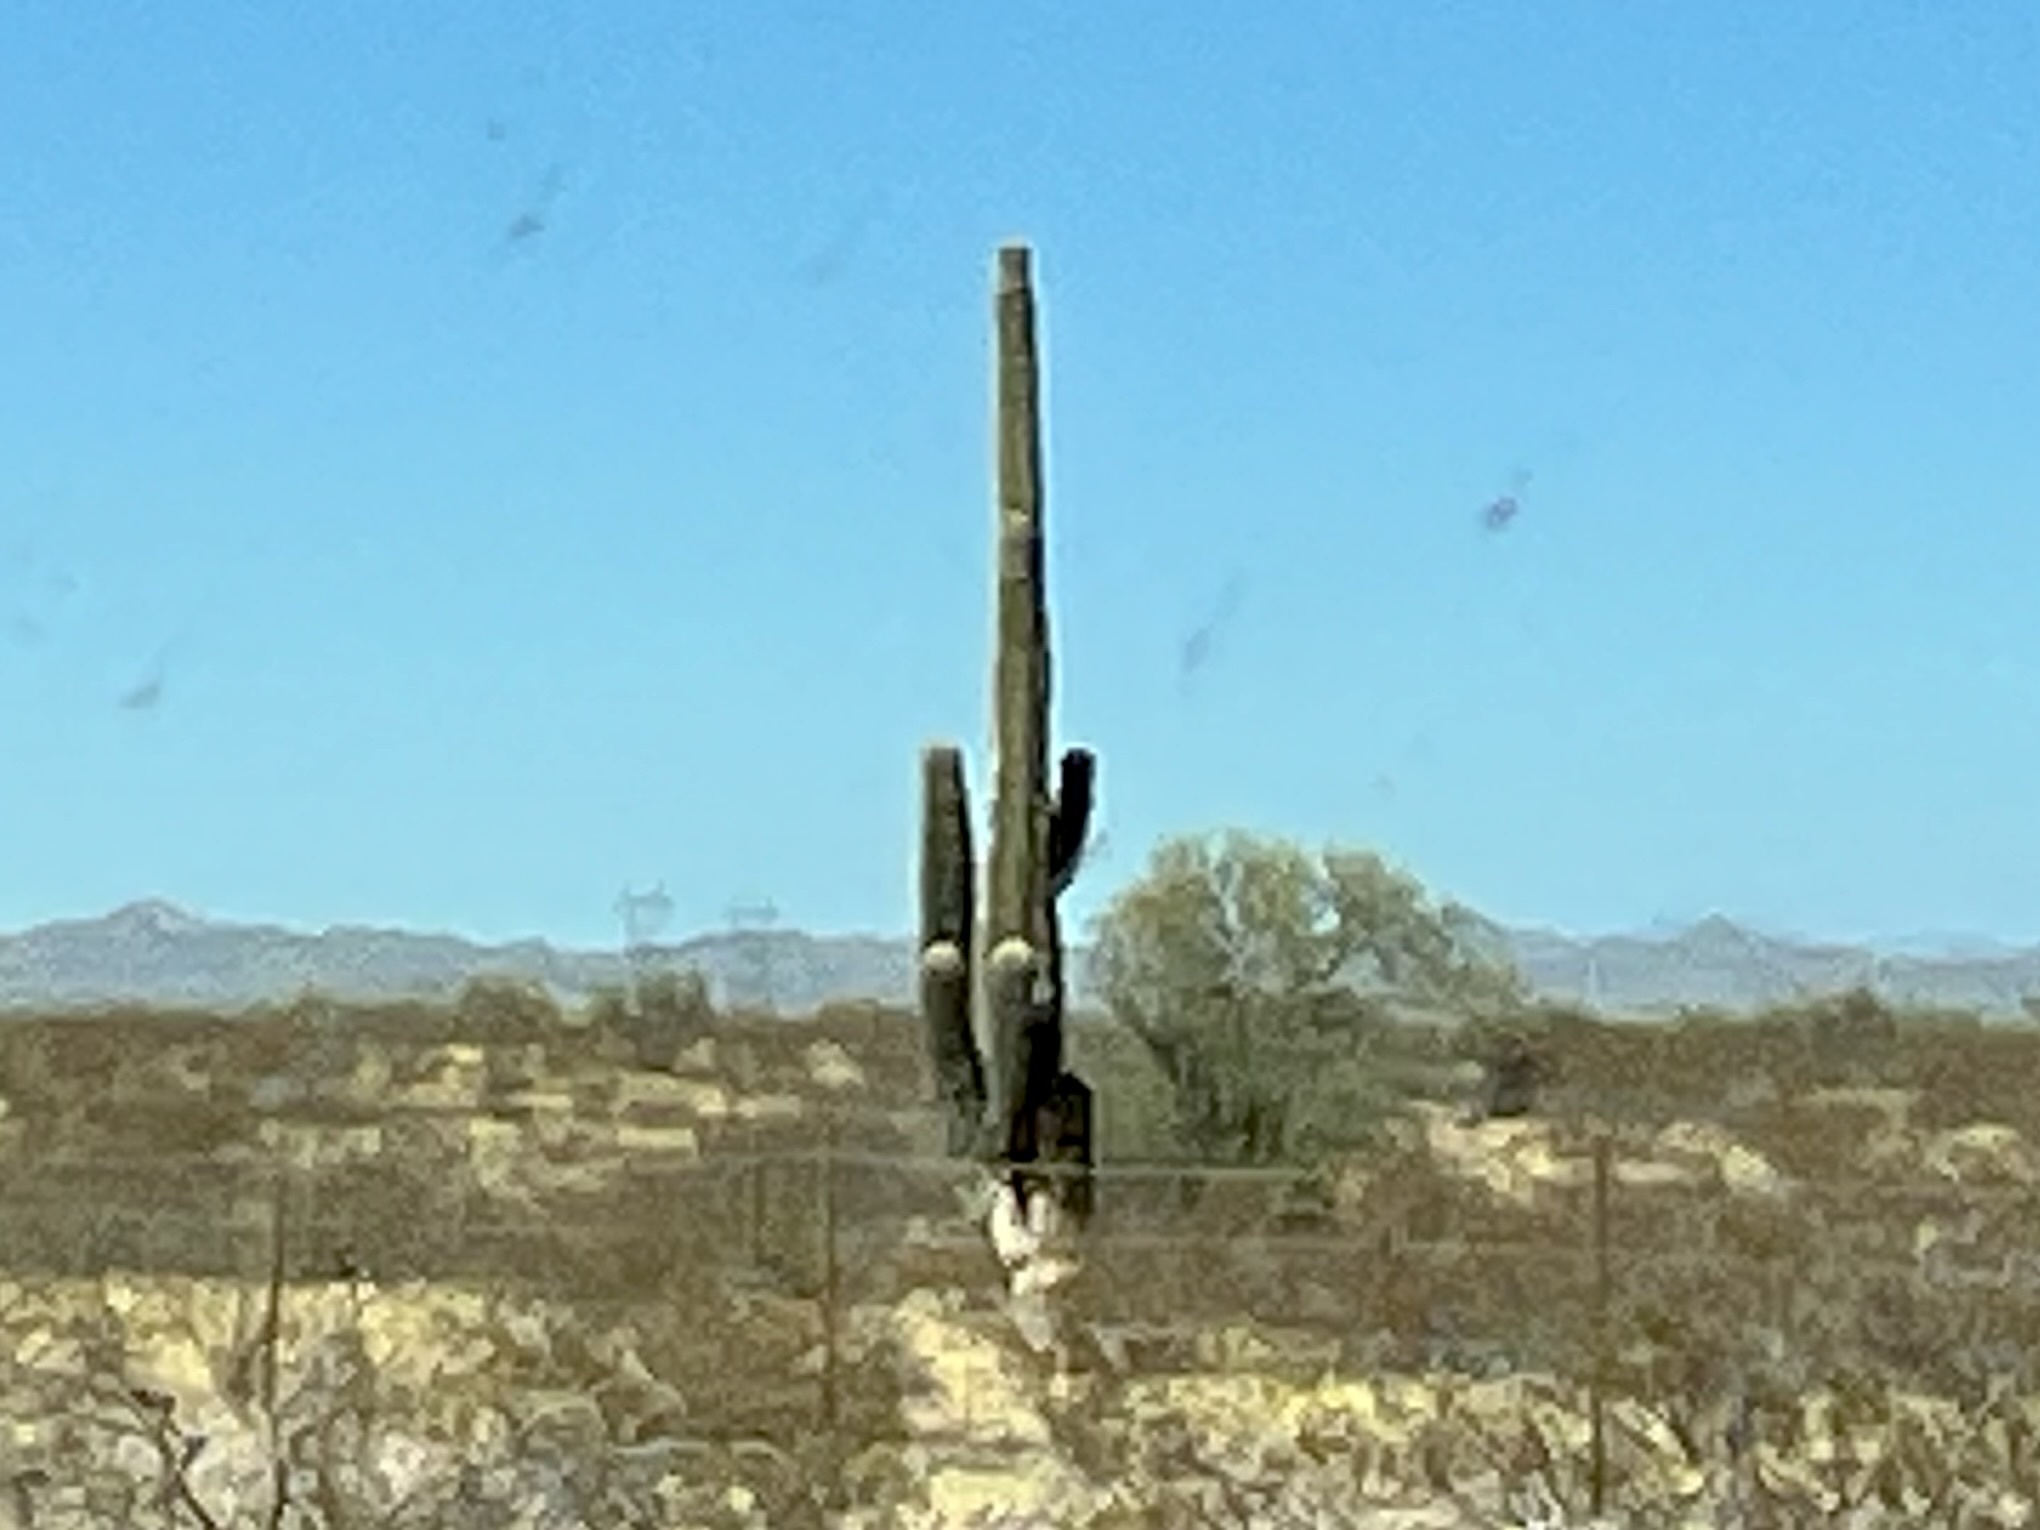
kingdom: Plantae
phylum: Tracheophyta
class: Magnoliopsida
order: Caryophyllales
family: Cactaceae
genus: Carnegiea
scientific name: Carnegiea gigantea
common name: Saguaro
